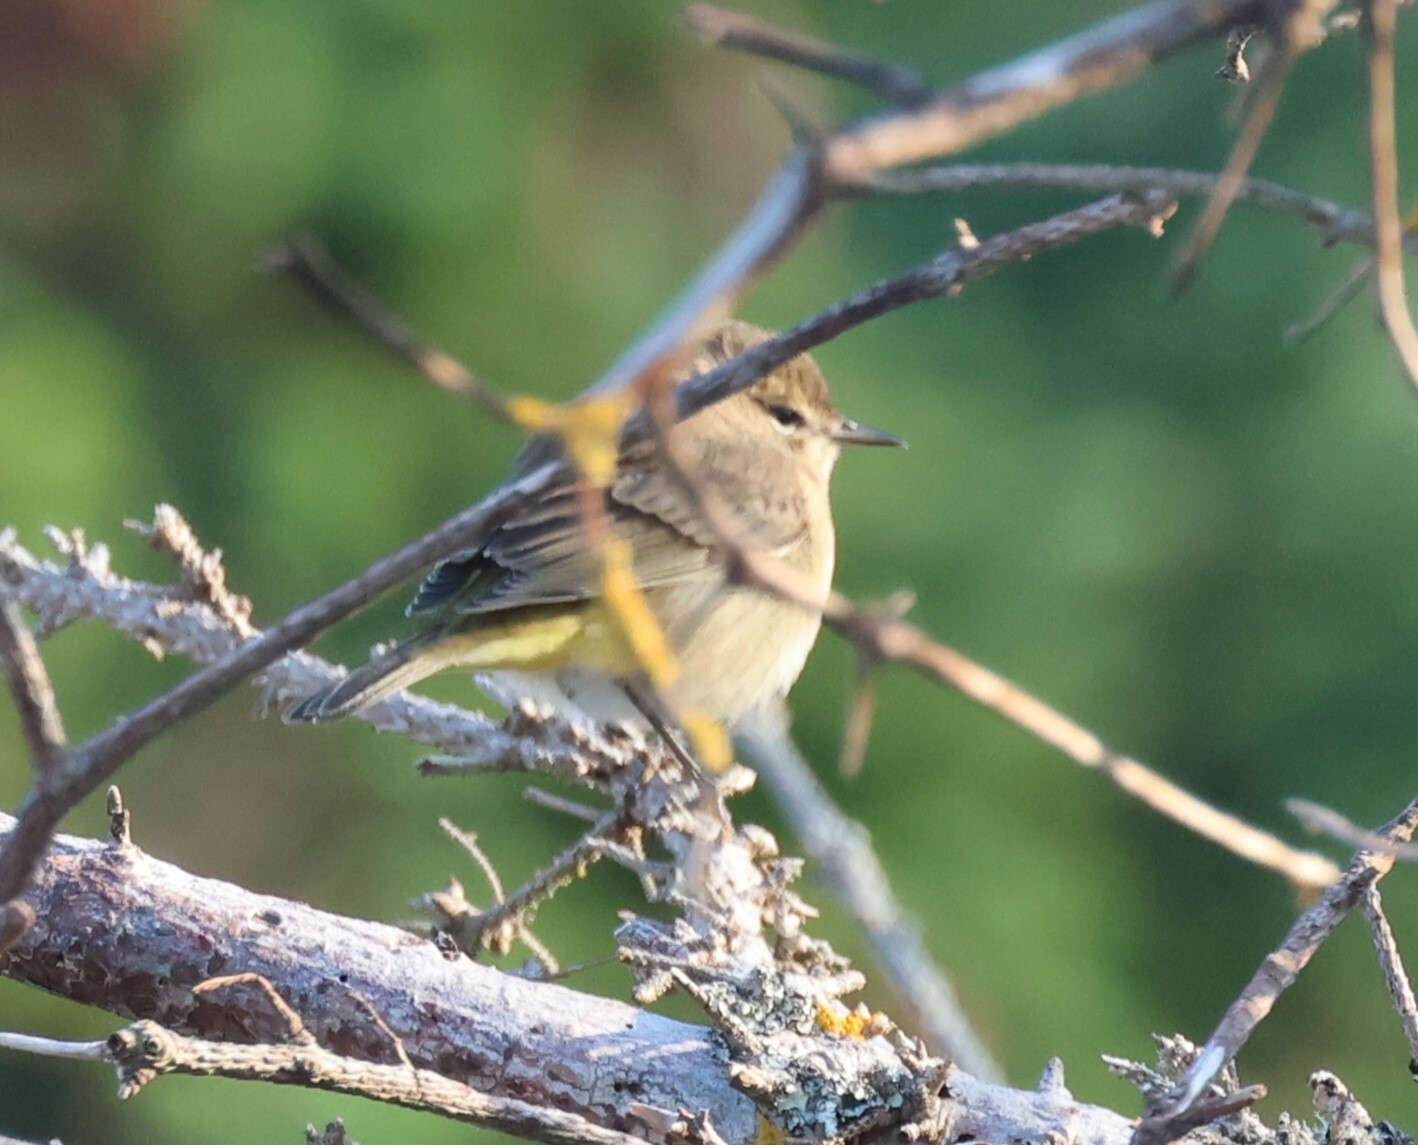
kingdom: Animalia
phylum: Chordata
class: Aves
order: Passeriformes
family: Parulidae
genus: Setophaga
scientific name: Setophaga palmarum
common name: Palm warbler
